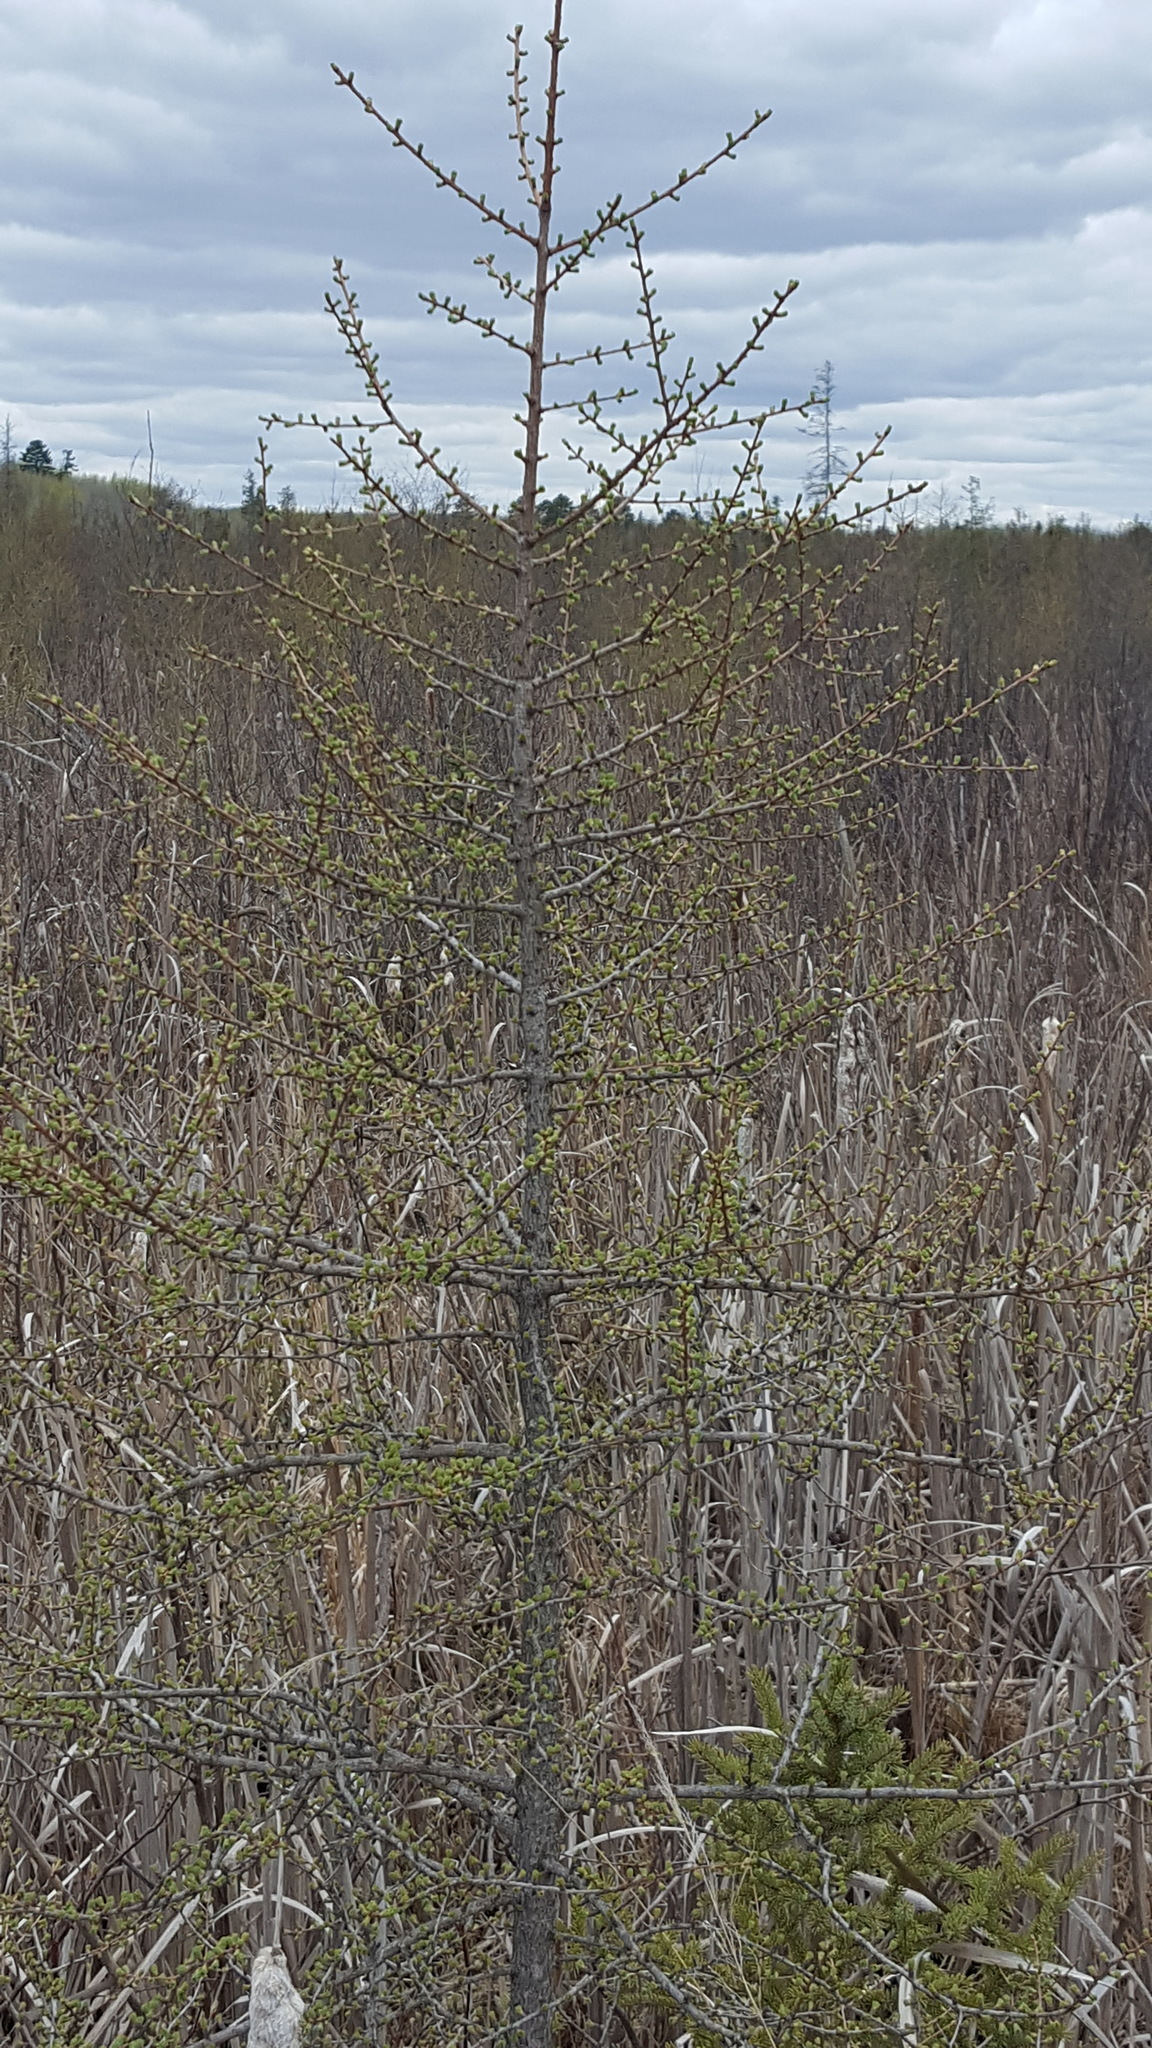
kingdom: Plantae
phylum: Tracheophyta
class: Pinopsida
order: Pinales
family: Pinaceae
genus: Larix
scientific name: Larix laricina
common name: American larch
